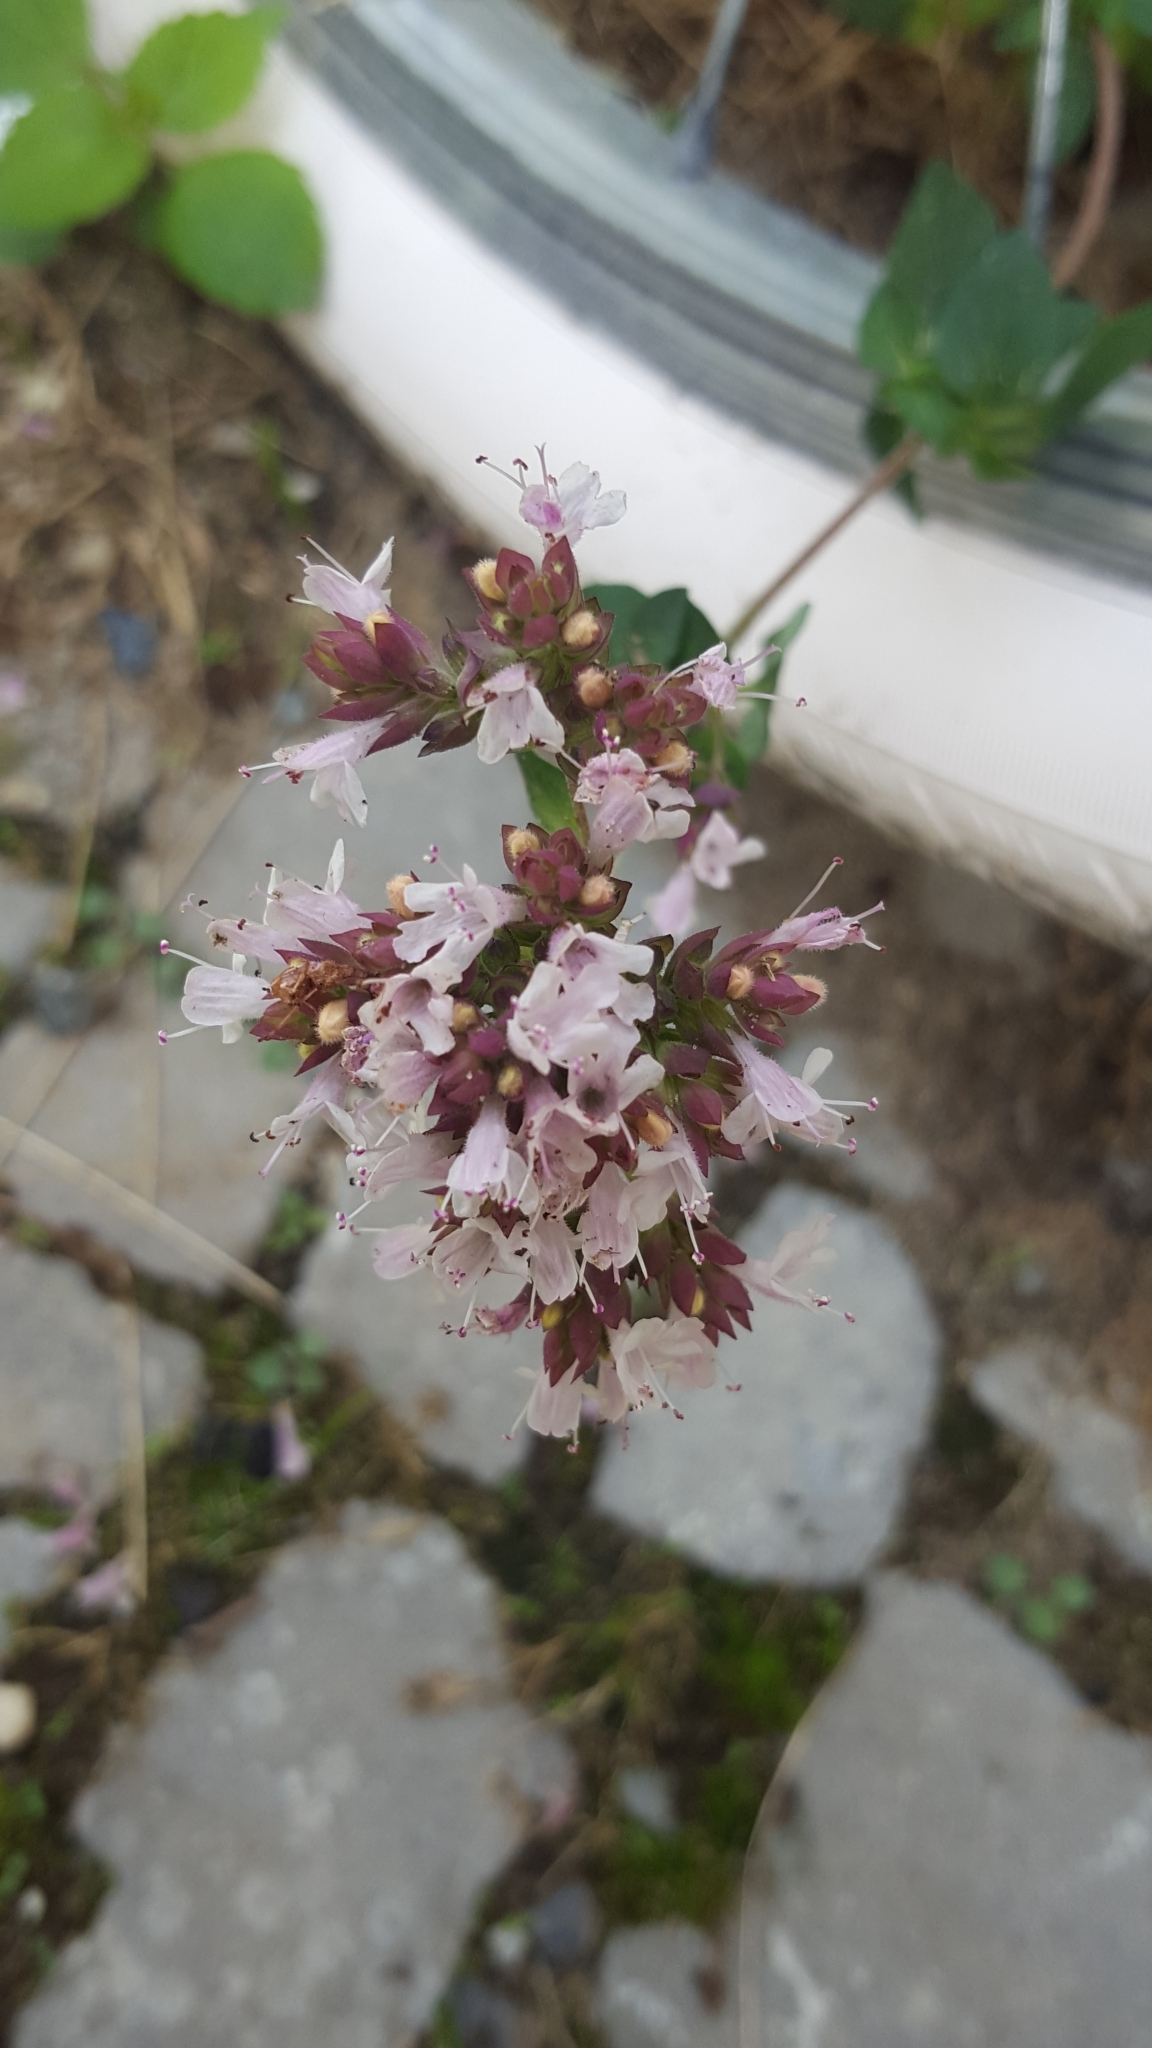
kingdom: Plantae
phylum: Tracheophyta
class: Magnoliopsida
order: Lamiales
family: Lamiaceae
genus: Origanum
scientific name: Origanum vulgare
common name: Wild marjoram
